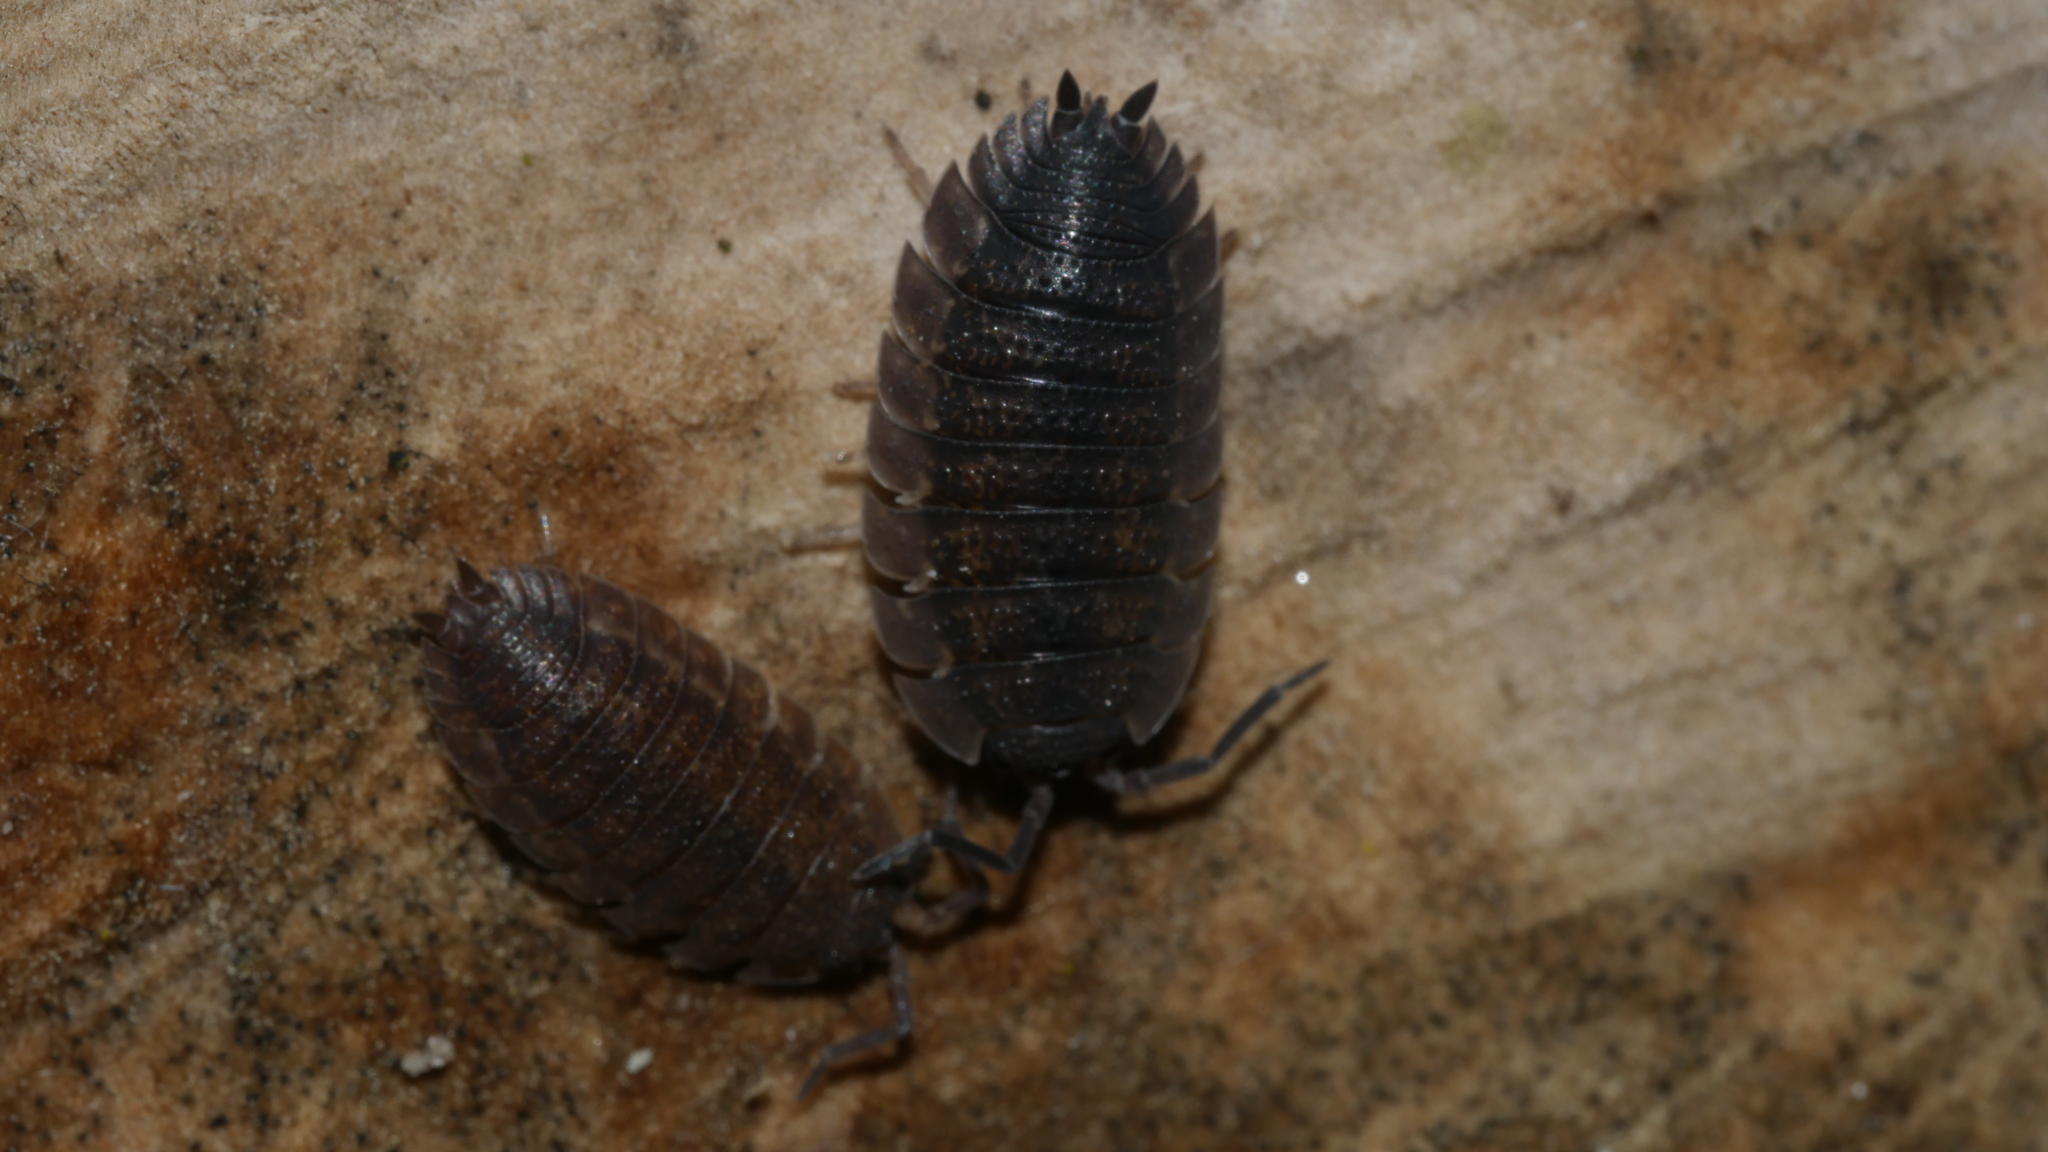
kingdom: Animalia
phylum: Arthropoda
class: Malacostraca
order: Isopoda
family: Porcellionidae
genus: Porcellio
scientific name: Porcellio scaber
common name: Common rough woodlouse
